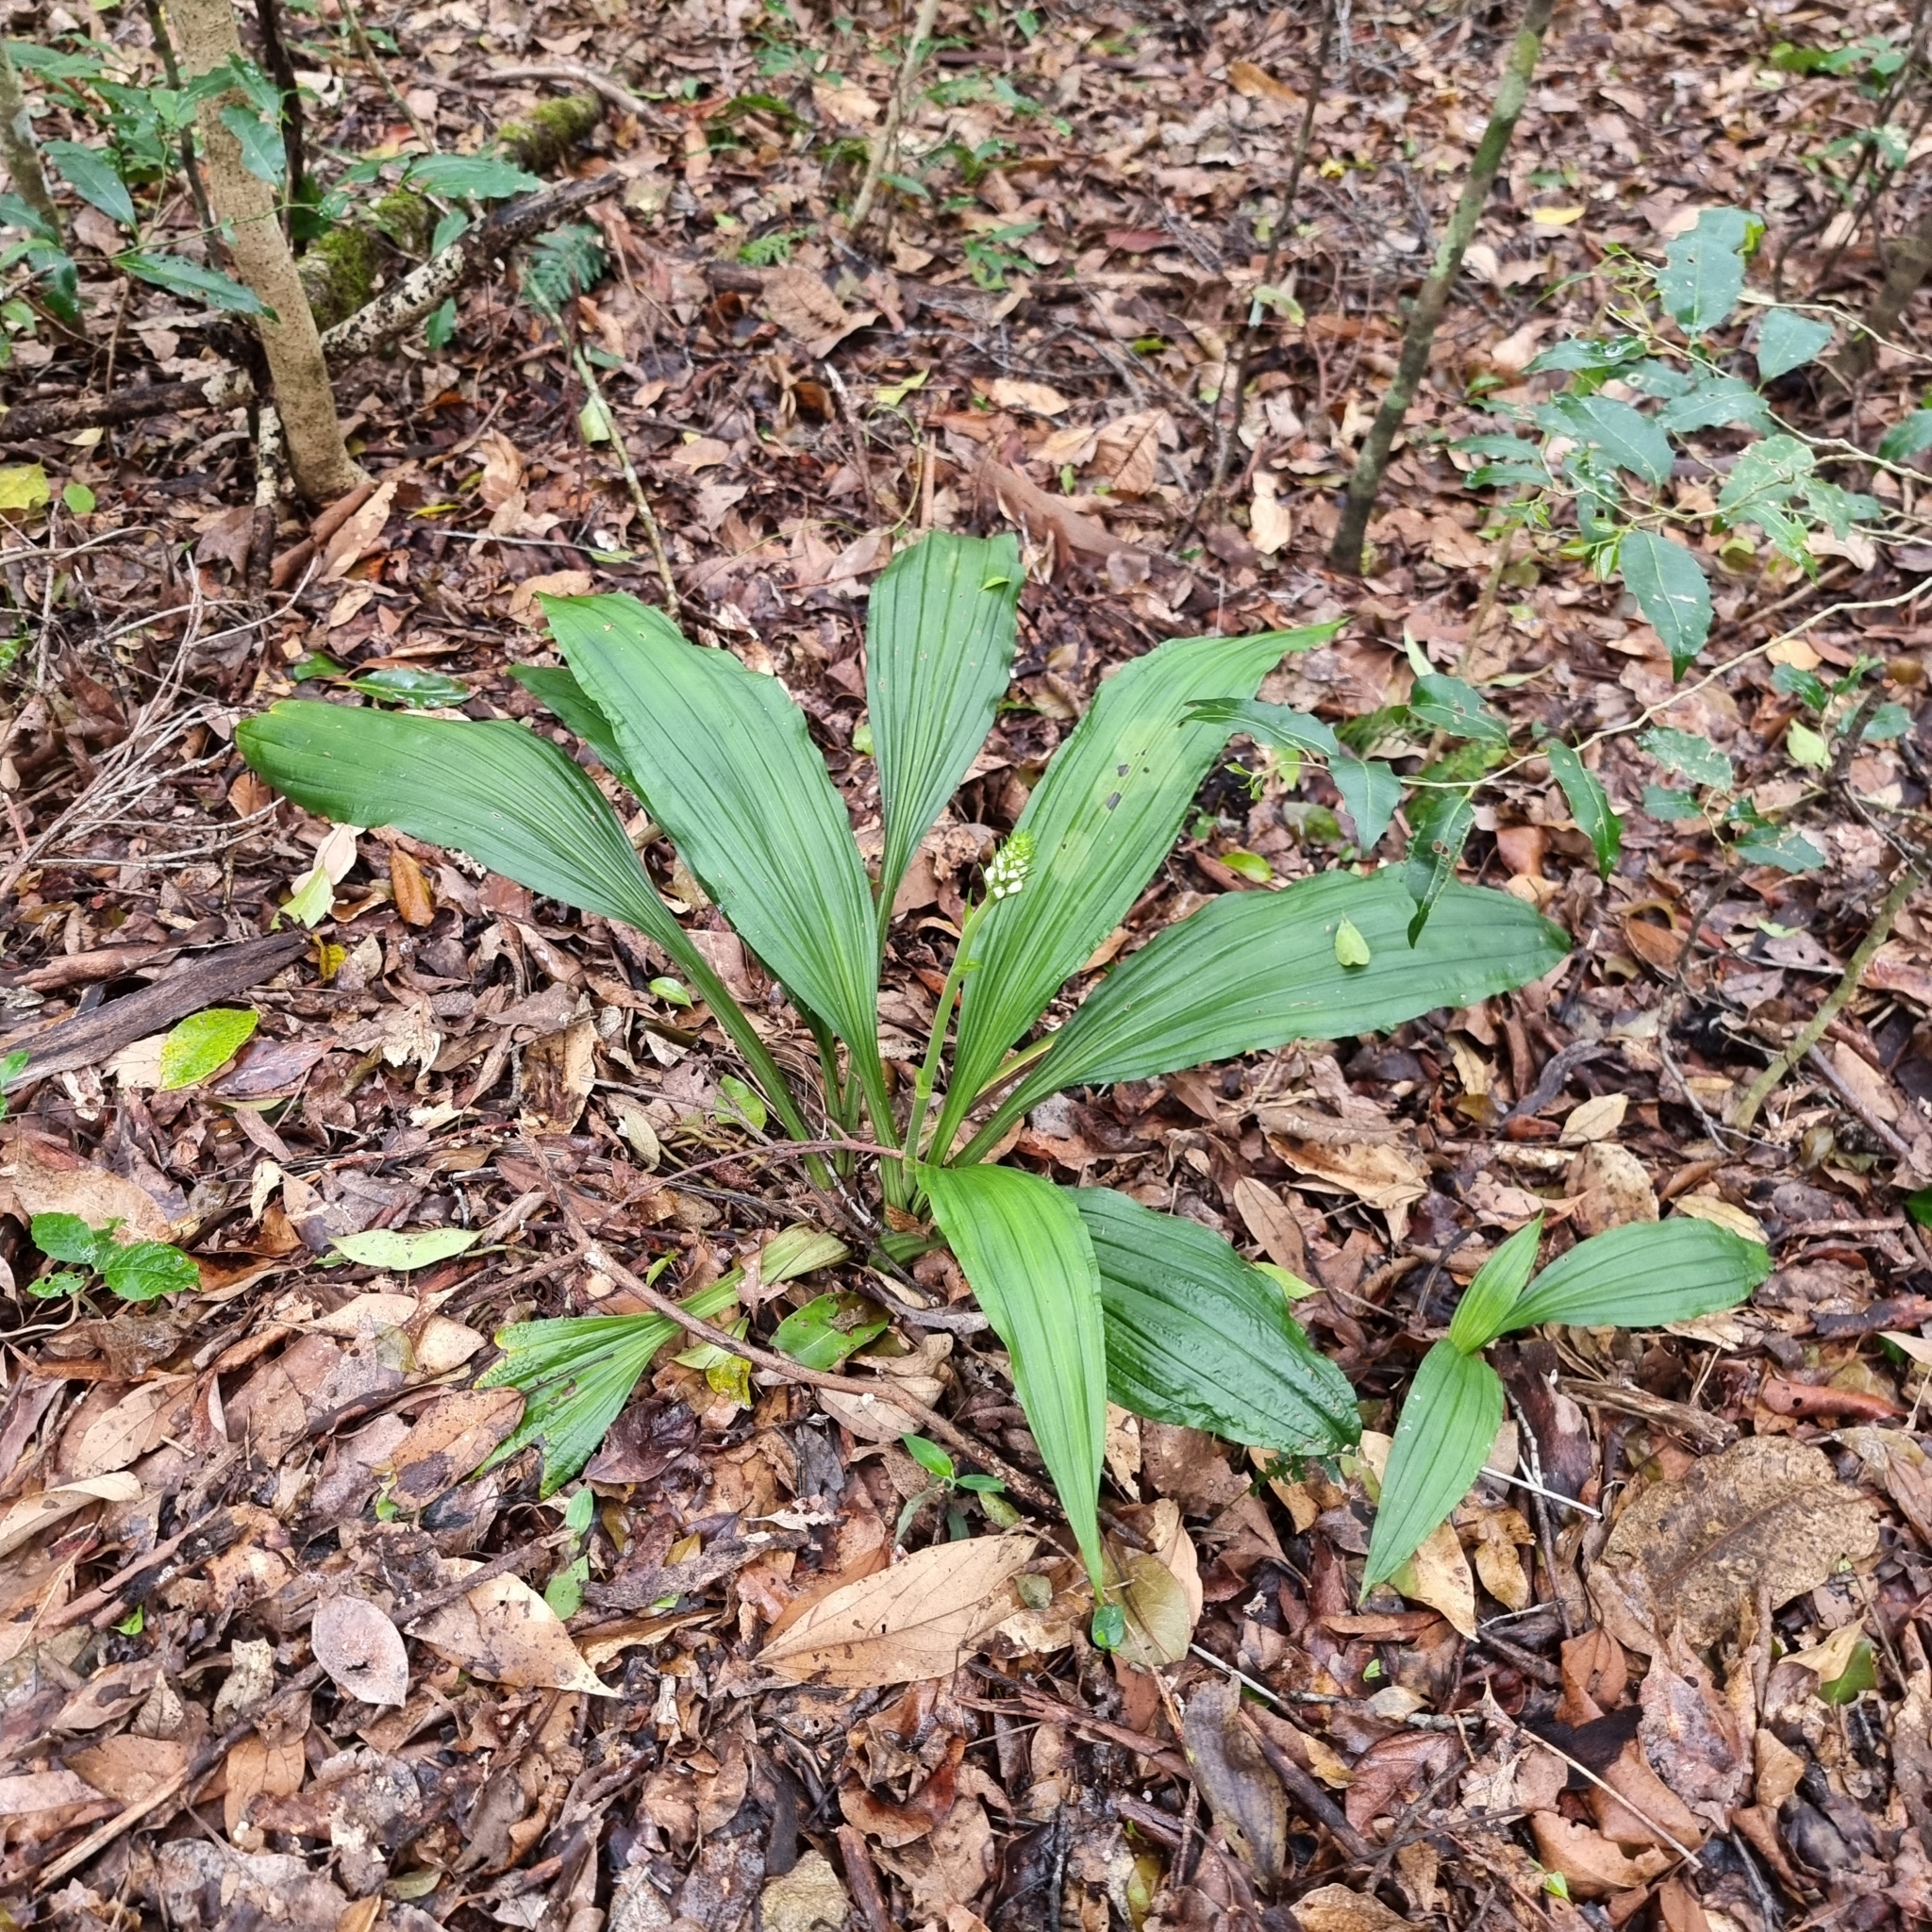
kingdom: Plantae
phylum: Tracheophyta
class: Liliopsida
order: Asparagales
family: Orchidaceae
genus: Calanthe
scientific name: Calanthe triplicata
